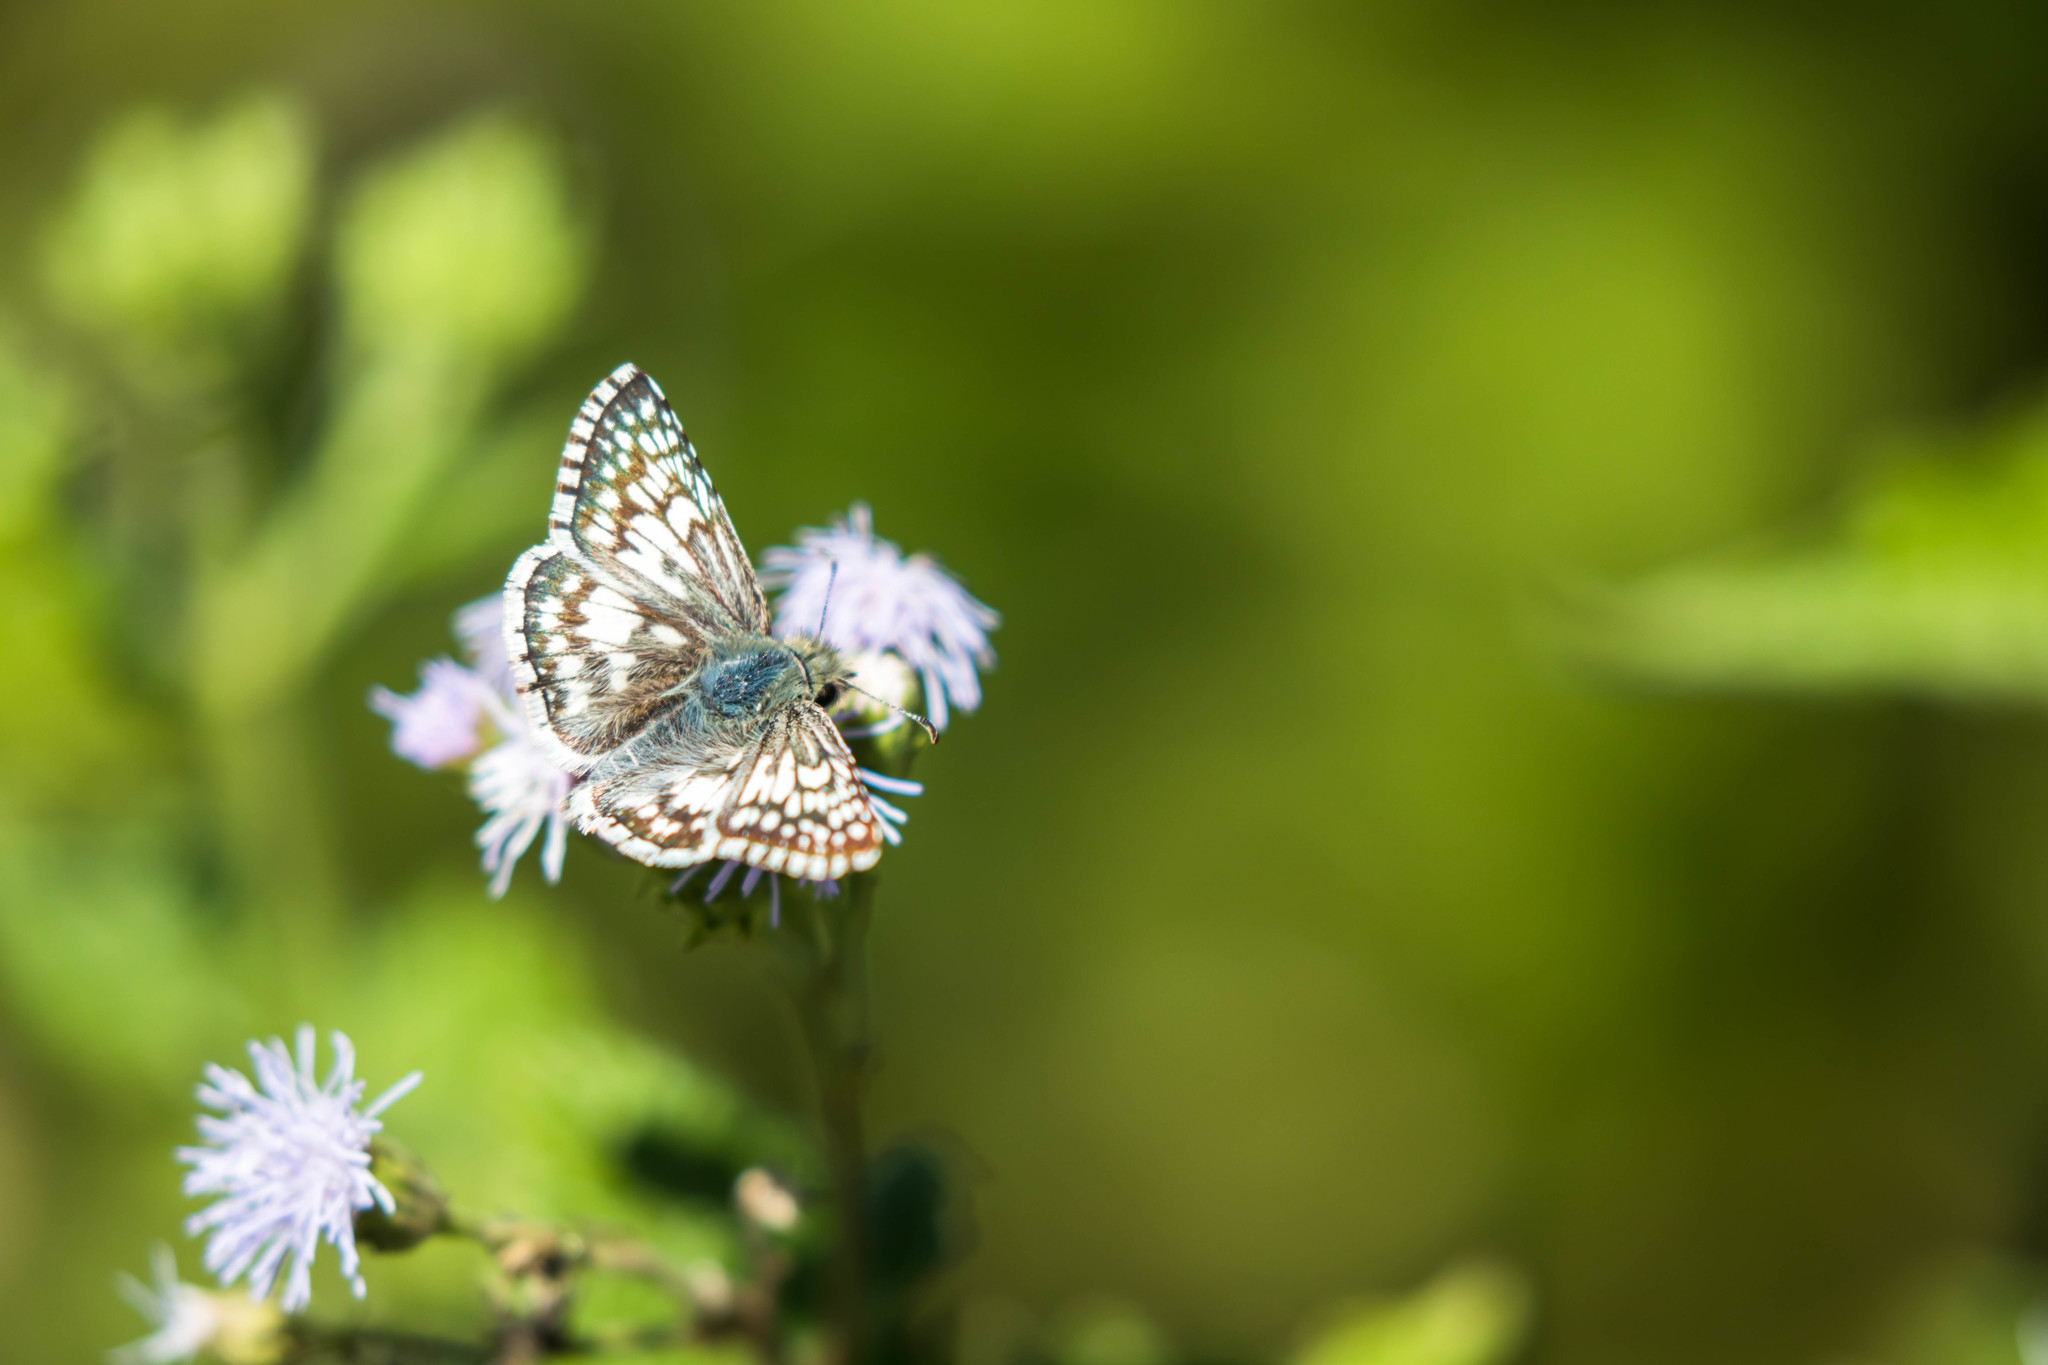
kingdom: Animalia
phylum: Arthropoda
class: Insecta
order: Lepidoptera
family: Hesperiidae
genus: Burnsius
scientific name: Burnsius
